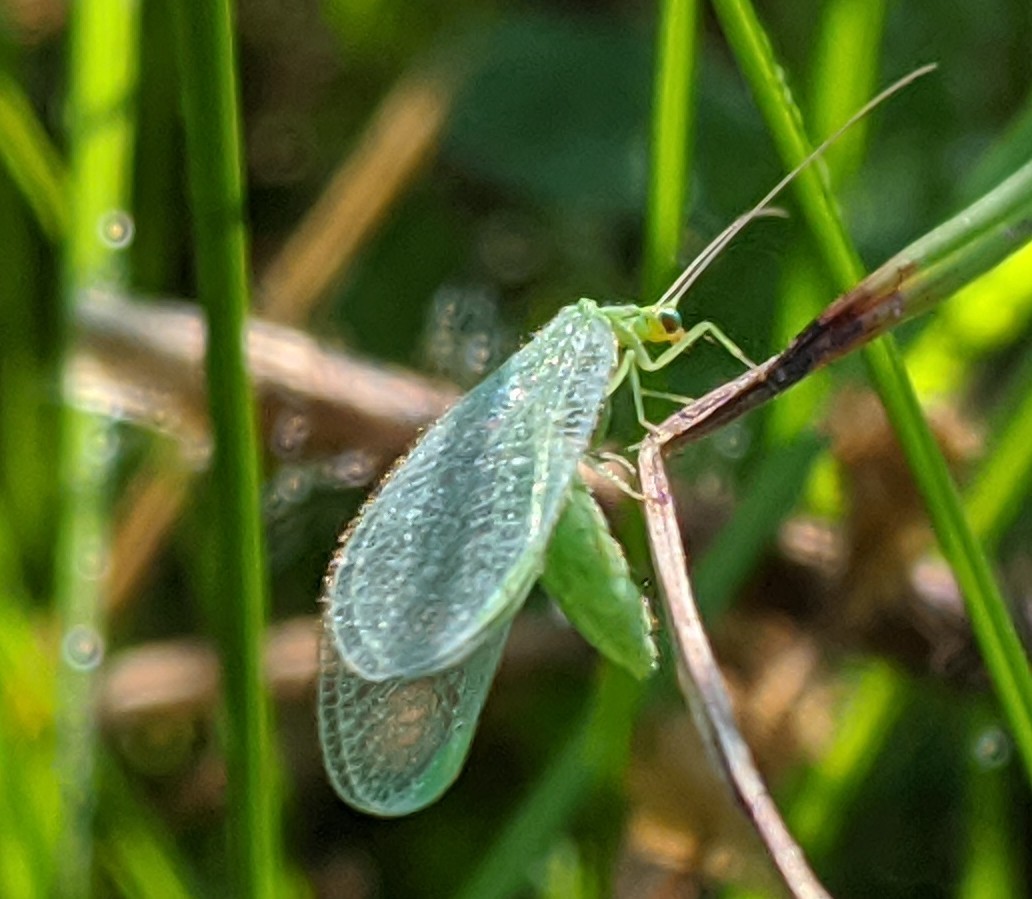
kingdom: Animalia
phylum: Arthropoda
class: Insecta
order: Neuroptera
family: Chrysopidae
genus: Chrysoperla
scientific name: Chrysoperla
